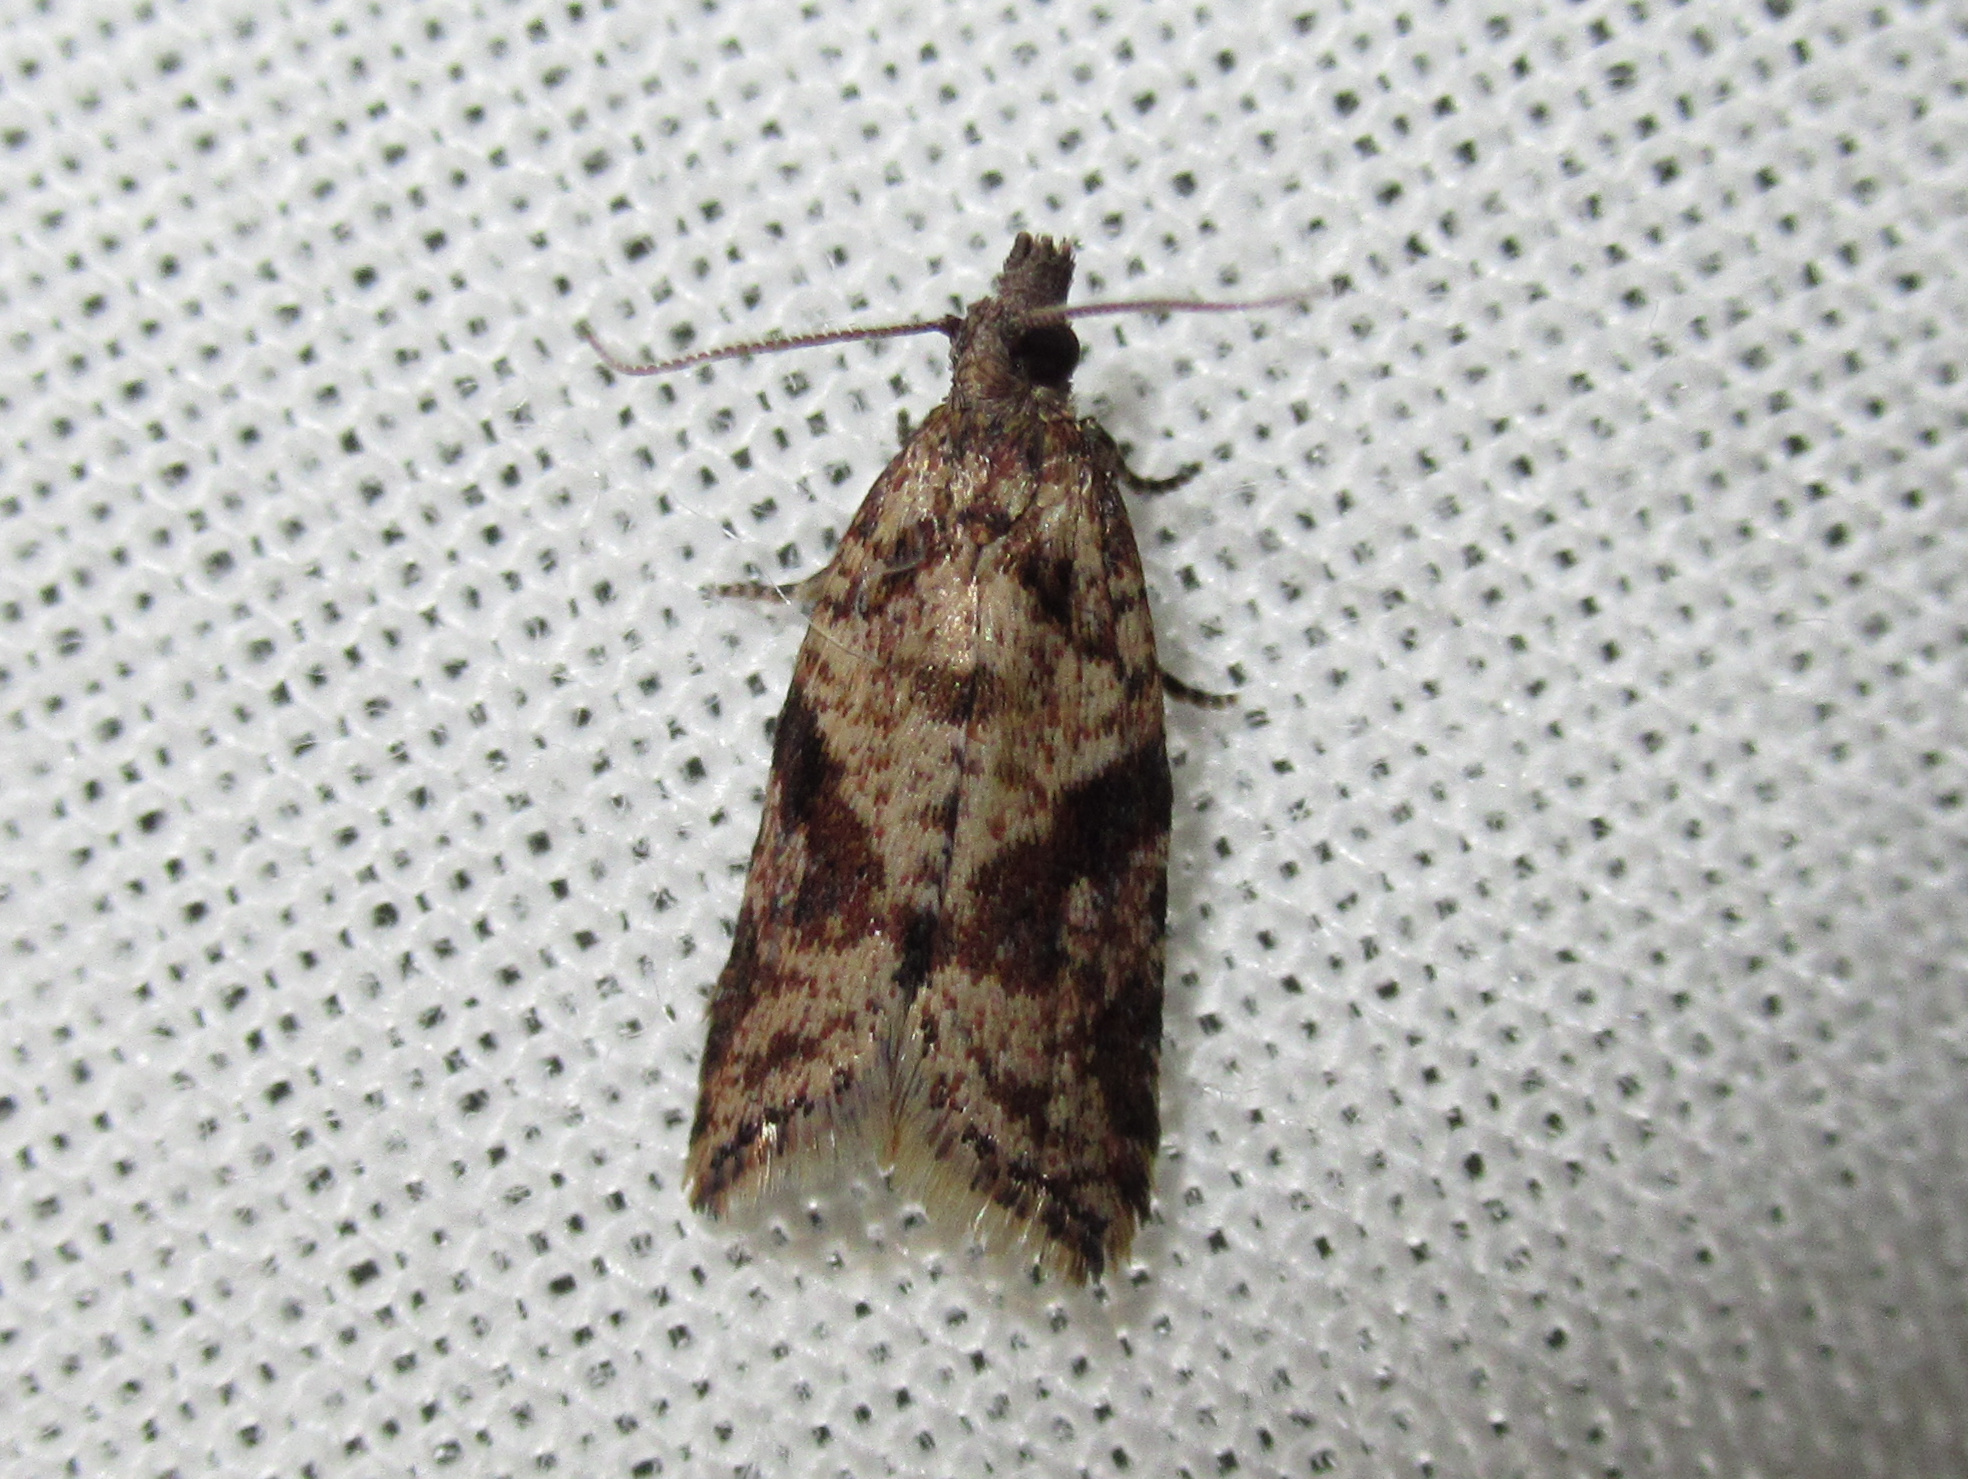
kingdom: Animalia
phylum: Arthropoda
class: Insecta
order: Lepidoptera
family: Tortricidae
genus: Capua
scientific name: Capua semiferana
